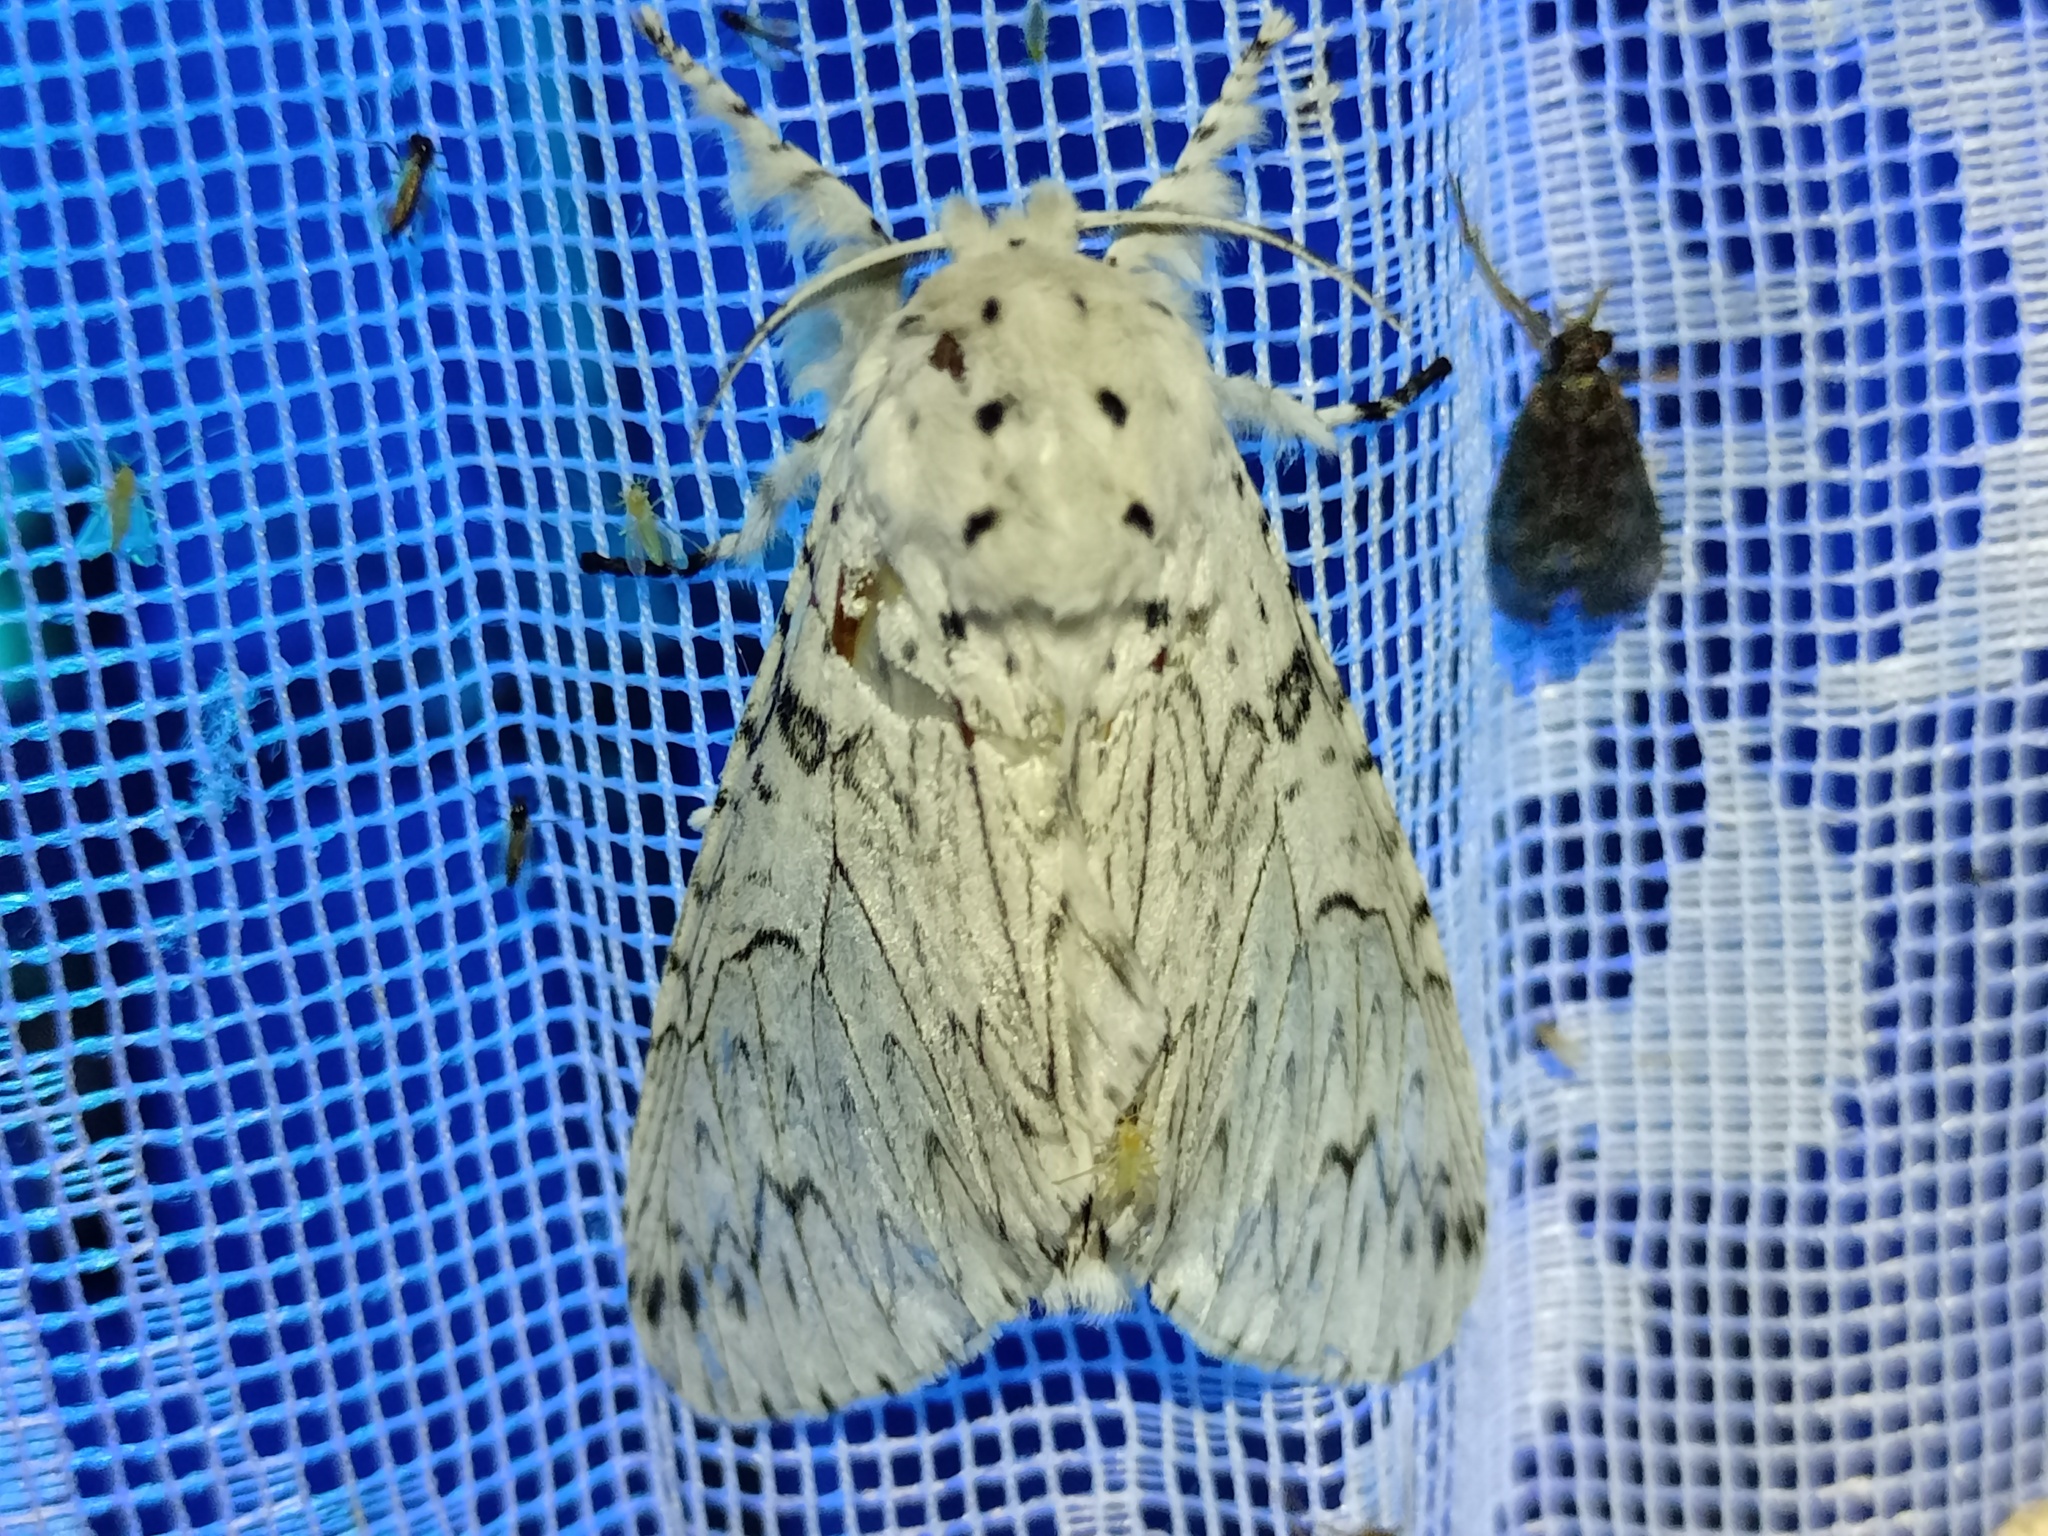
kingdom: Animalia
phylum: Arthropoda
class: Insecta
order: Lepidoptera
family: Notodontidae
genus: Cerura
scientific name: Cerura erminea
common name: Lesser puss moth
